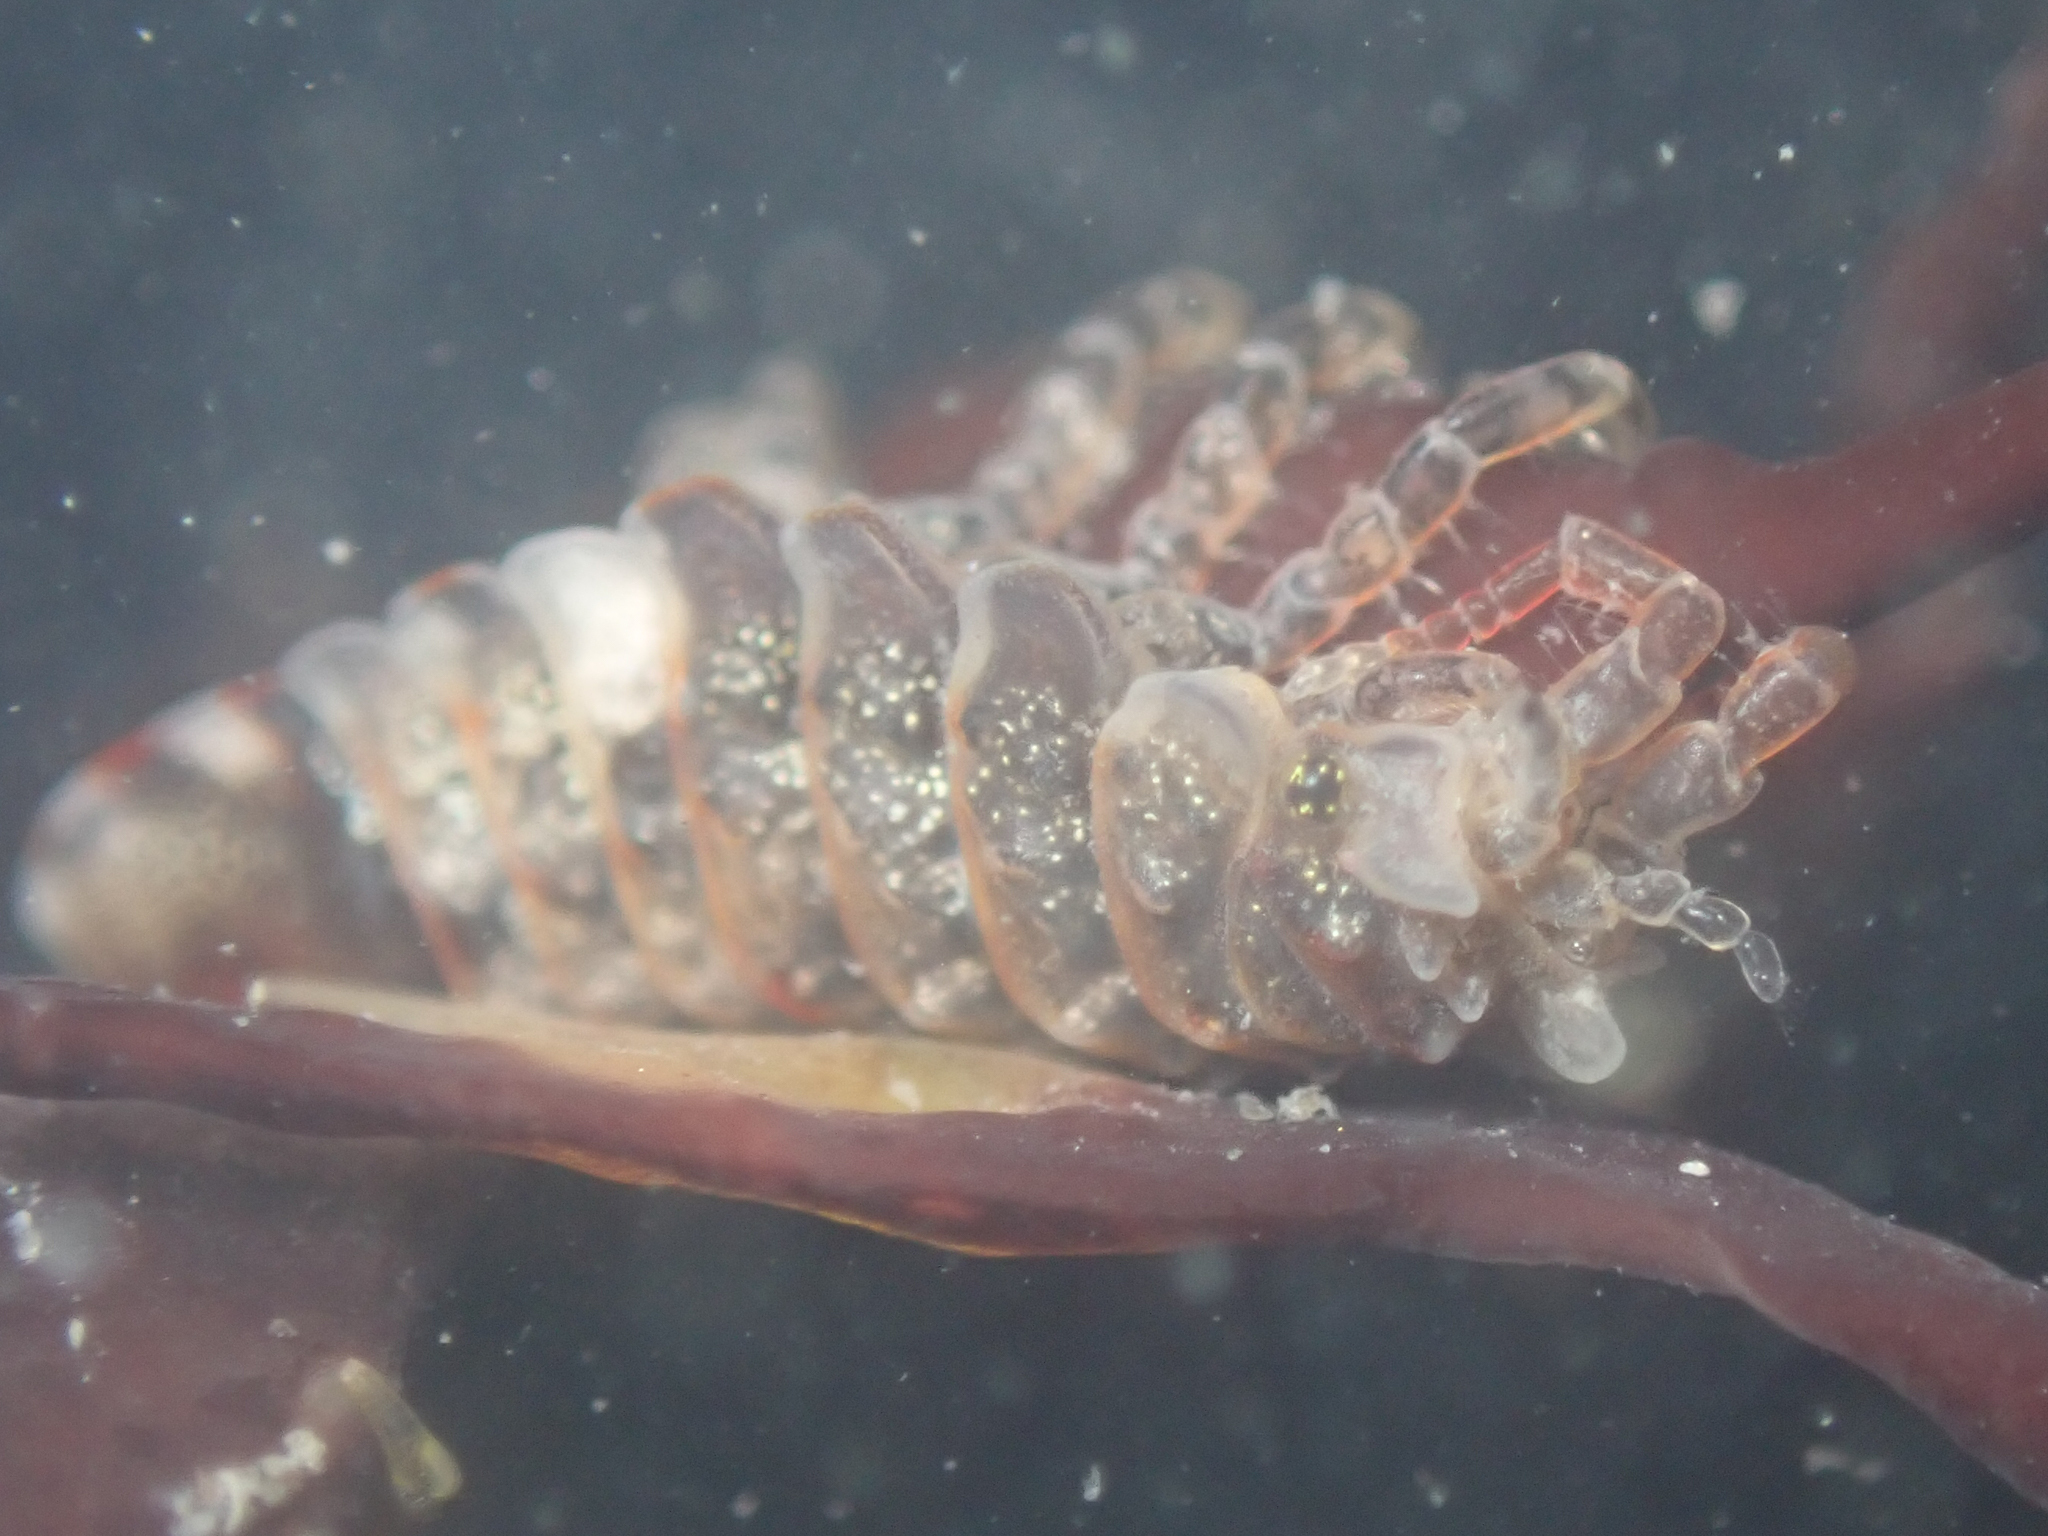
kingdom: Animalia
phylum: Arthropoda
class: Malacostraca
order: Isopoda
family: Idoteidae
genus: Synidotea
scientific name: Synidotea ritteri
